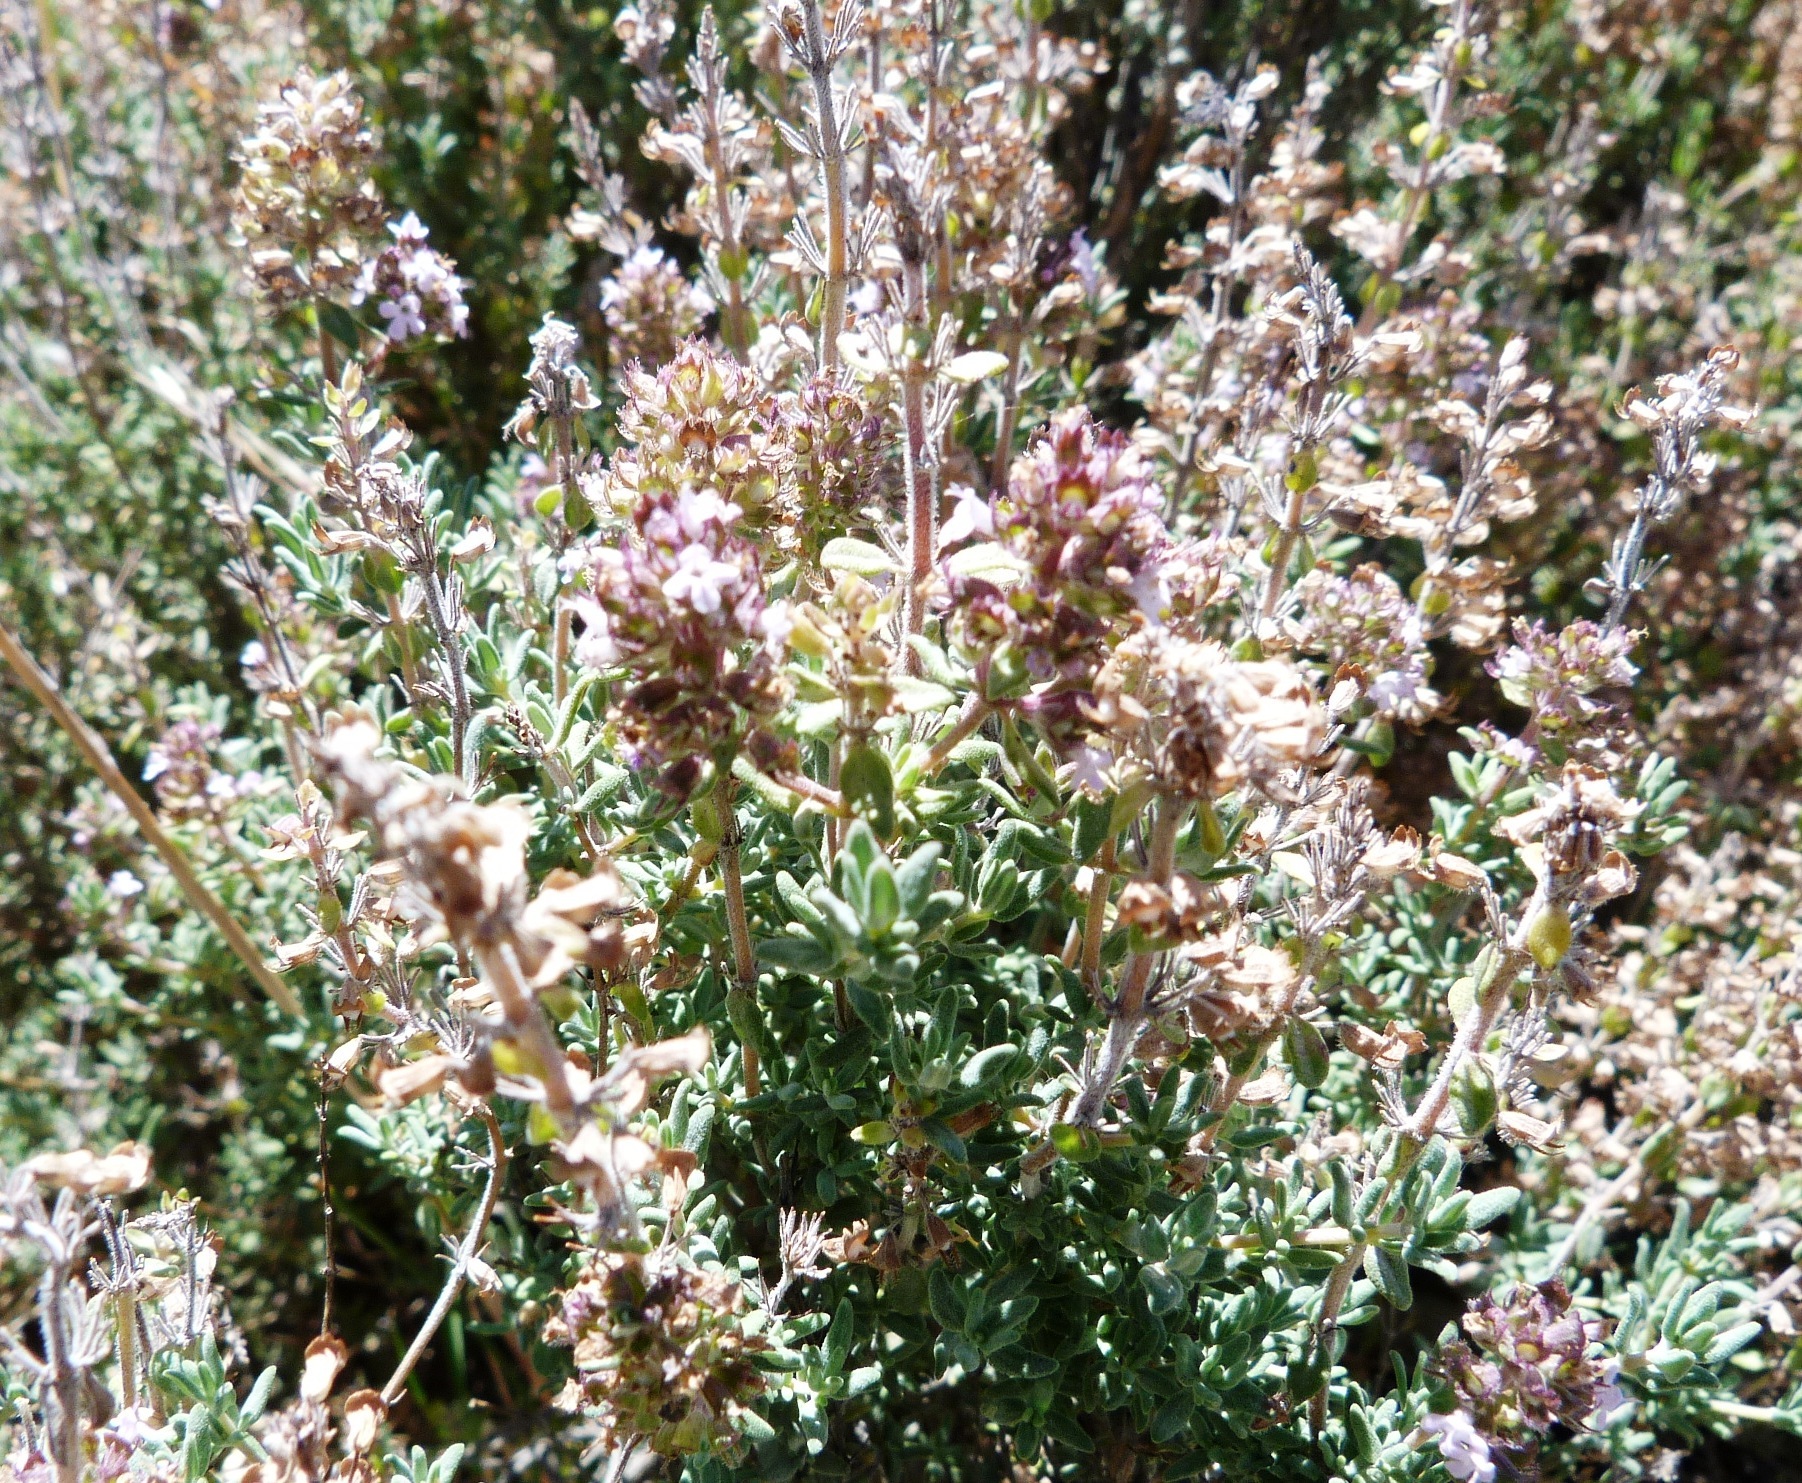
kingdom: Plantae
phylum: Tracheophyta
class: Magnoliopsida
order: Lamiales
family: Lamiaceae
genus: Thymus
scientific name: Thymus vulgaris
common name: Garden thyme
